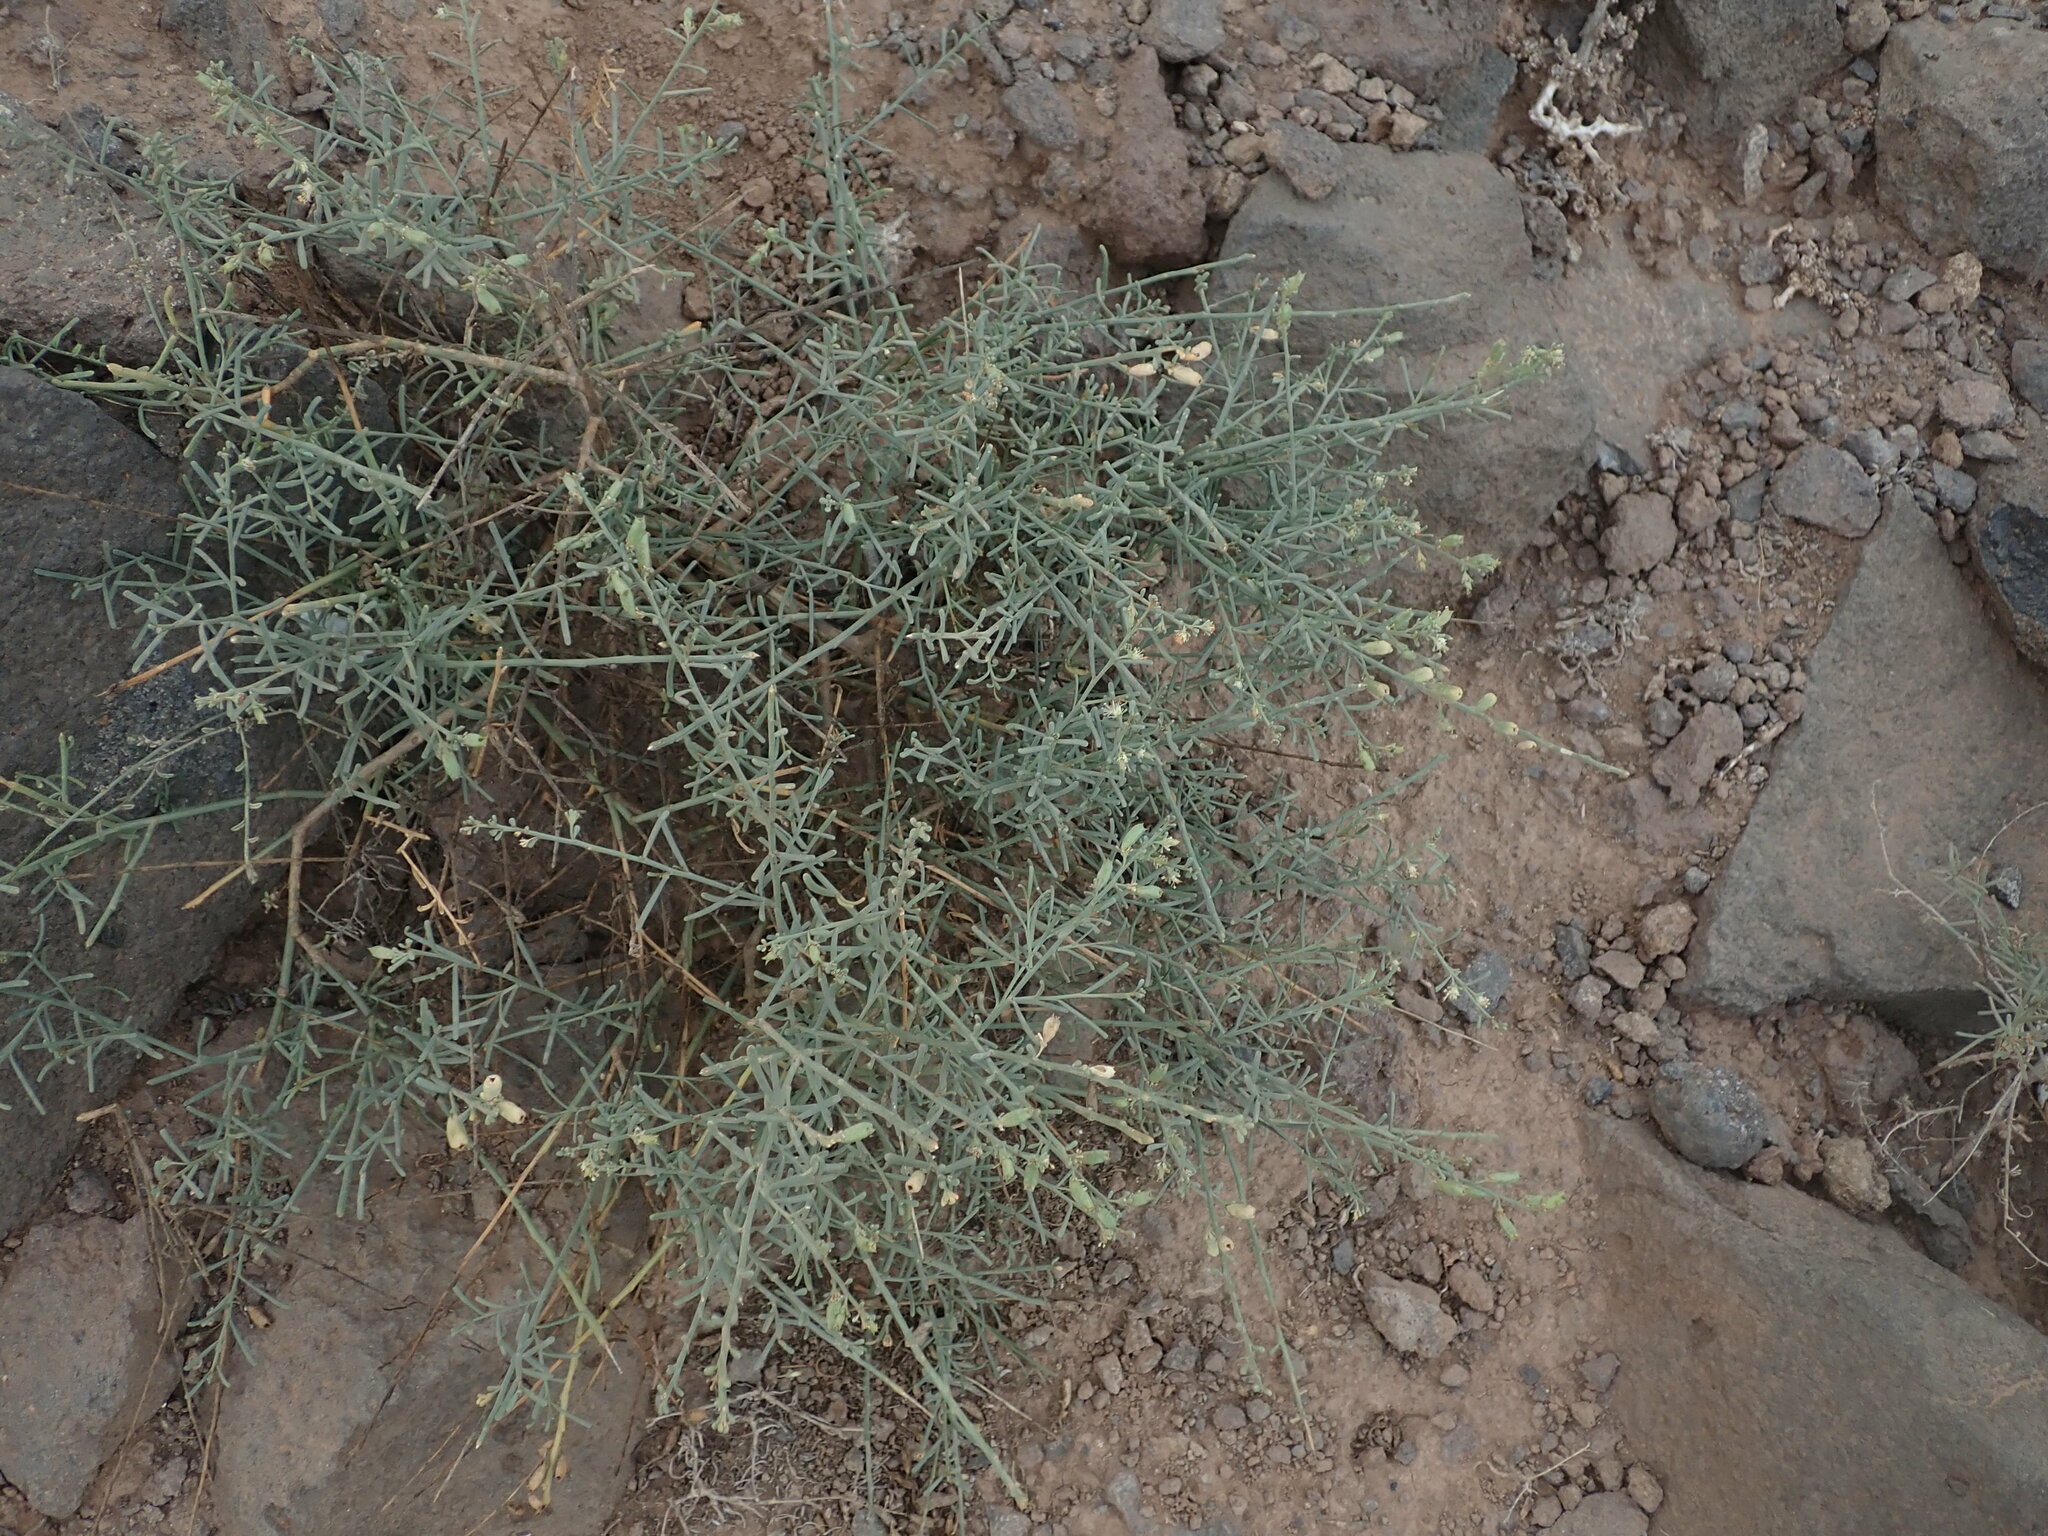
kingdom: Plantae
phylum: Tracheophyta
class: Magnoliopsida
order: Brassicales
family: Resedaceae
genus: Reseda
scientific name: Reseda scoparia
